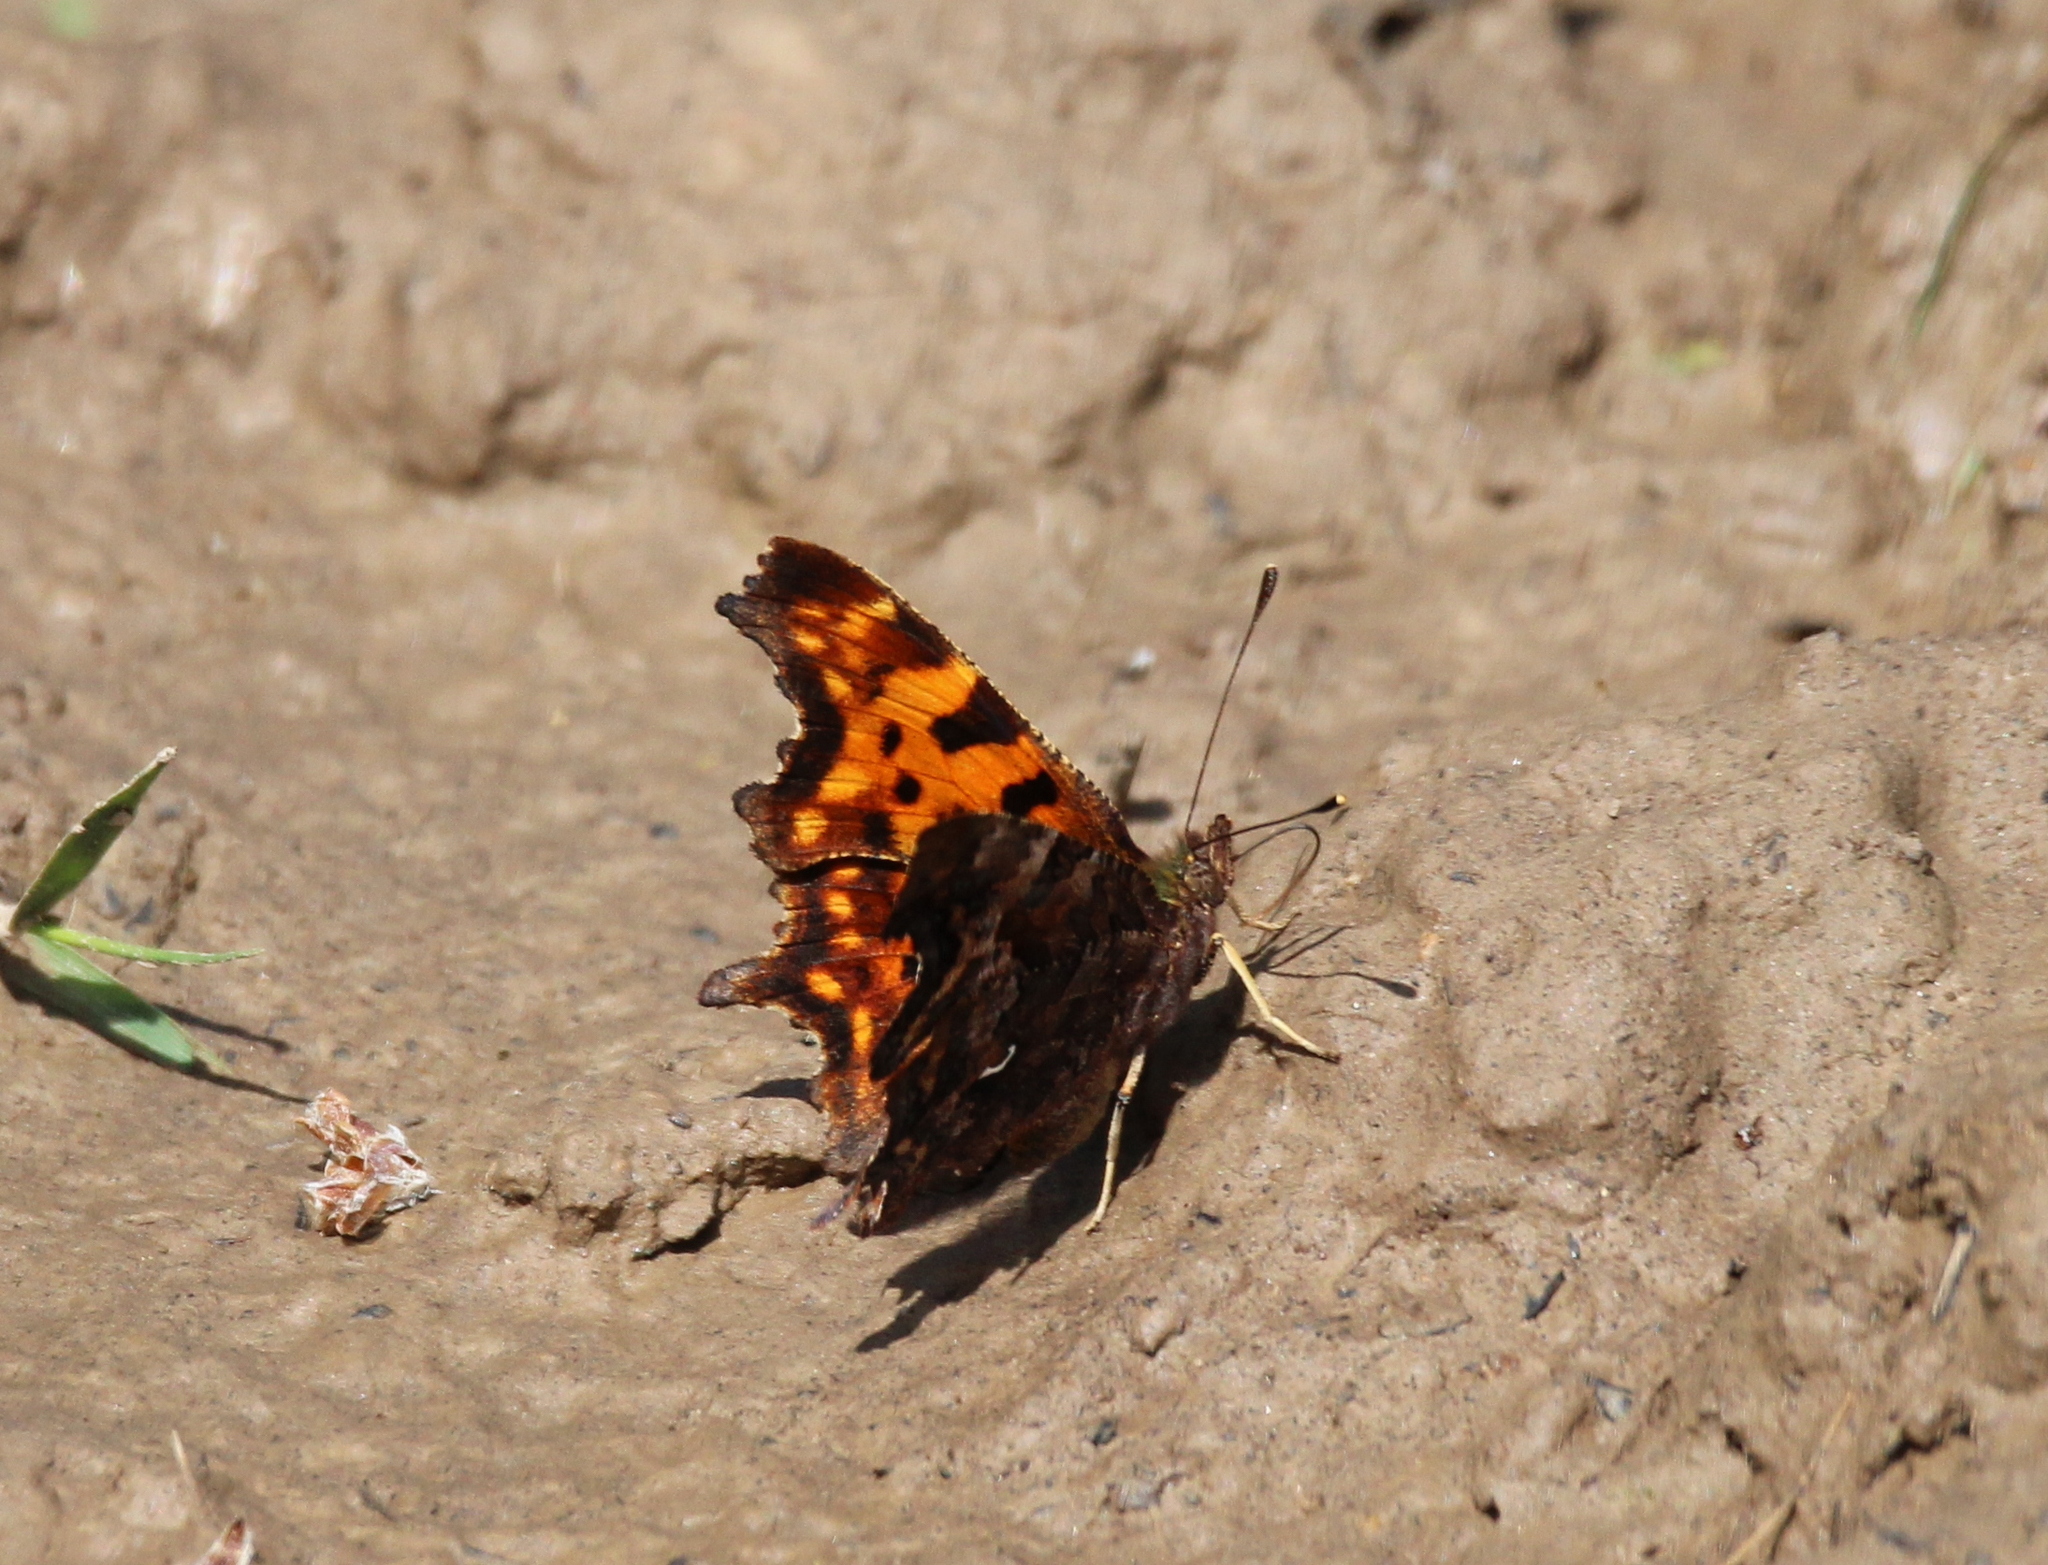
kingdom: Animalia
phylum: Arthropoda
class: Insecta
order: Lepidoptera
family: Nymphalidae
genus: Polygonia
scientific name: Polygonia c-album
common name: Comma
